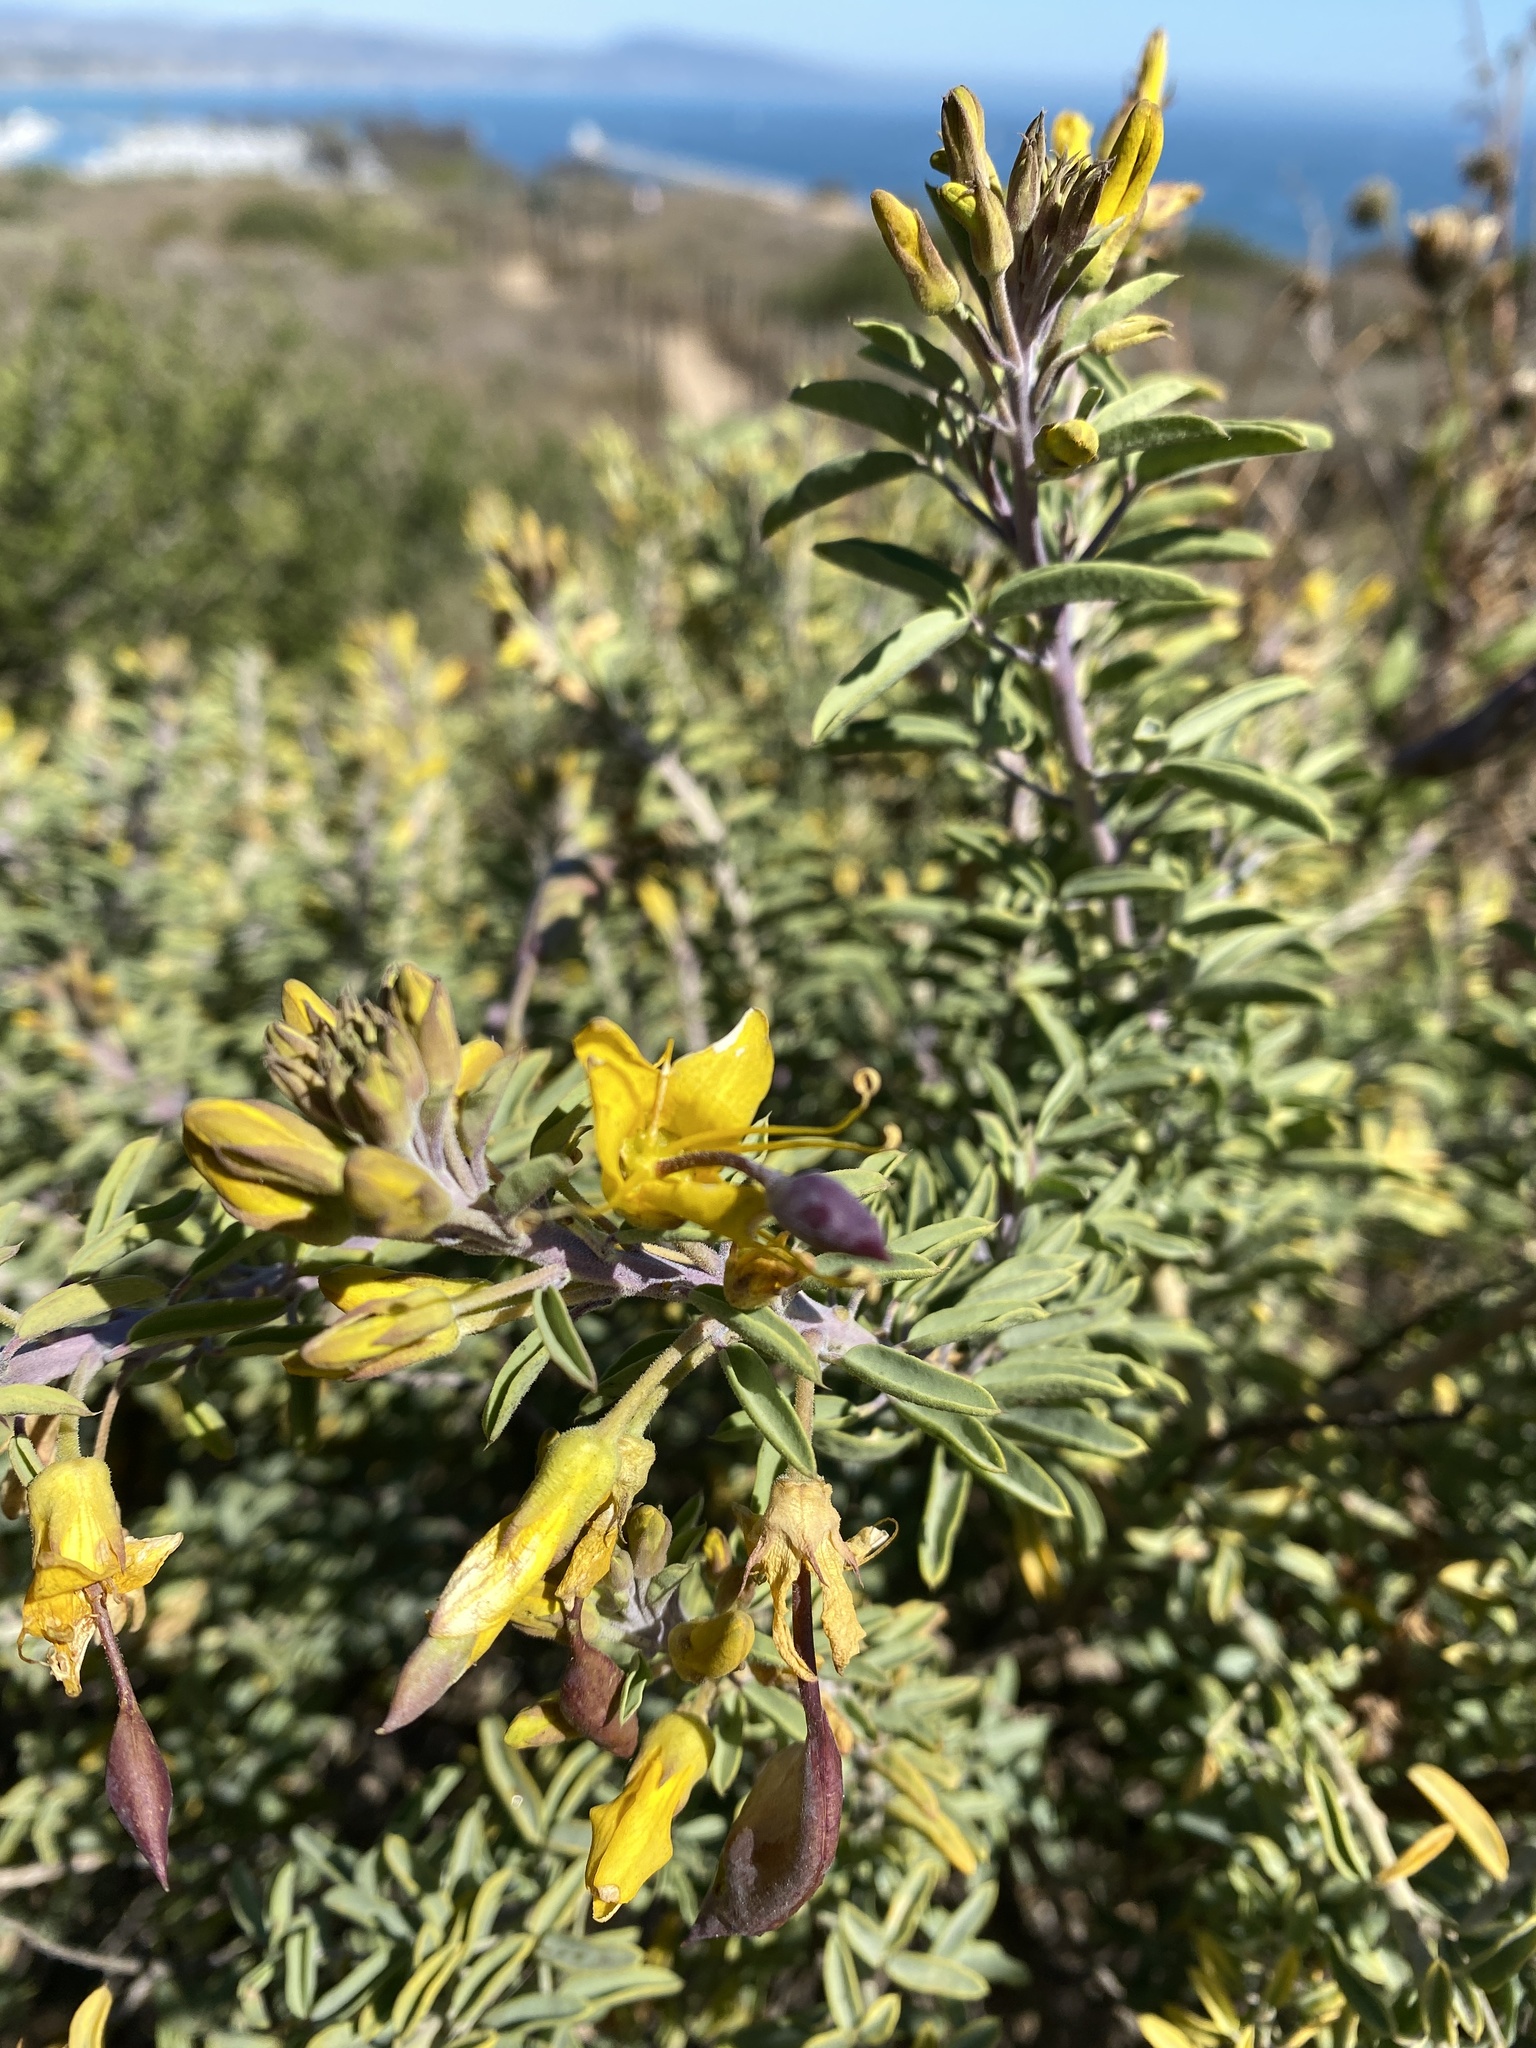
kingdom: Plantae
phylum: Tracheophyta
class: Magnoliopsida
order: Brassicales
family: Cleomaceae
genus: Cleomella
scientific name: Cleomella arborea
